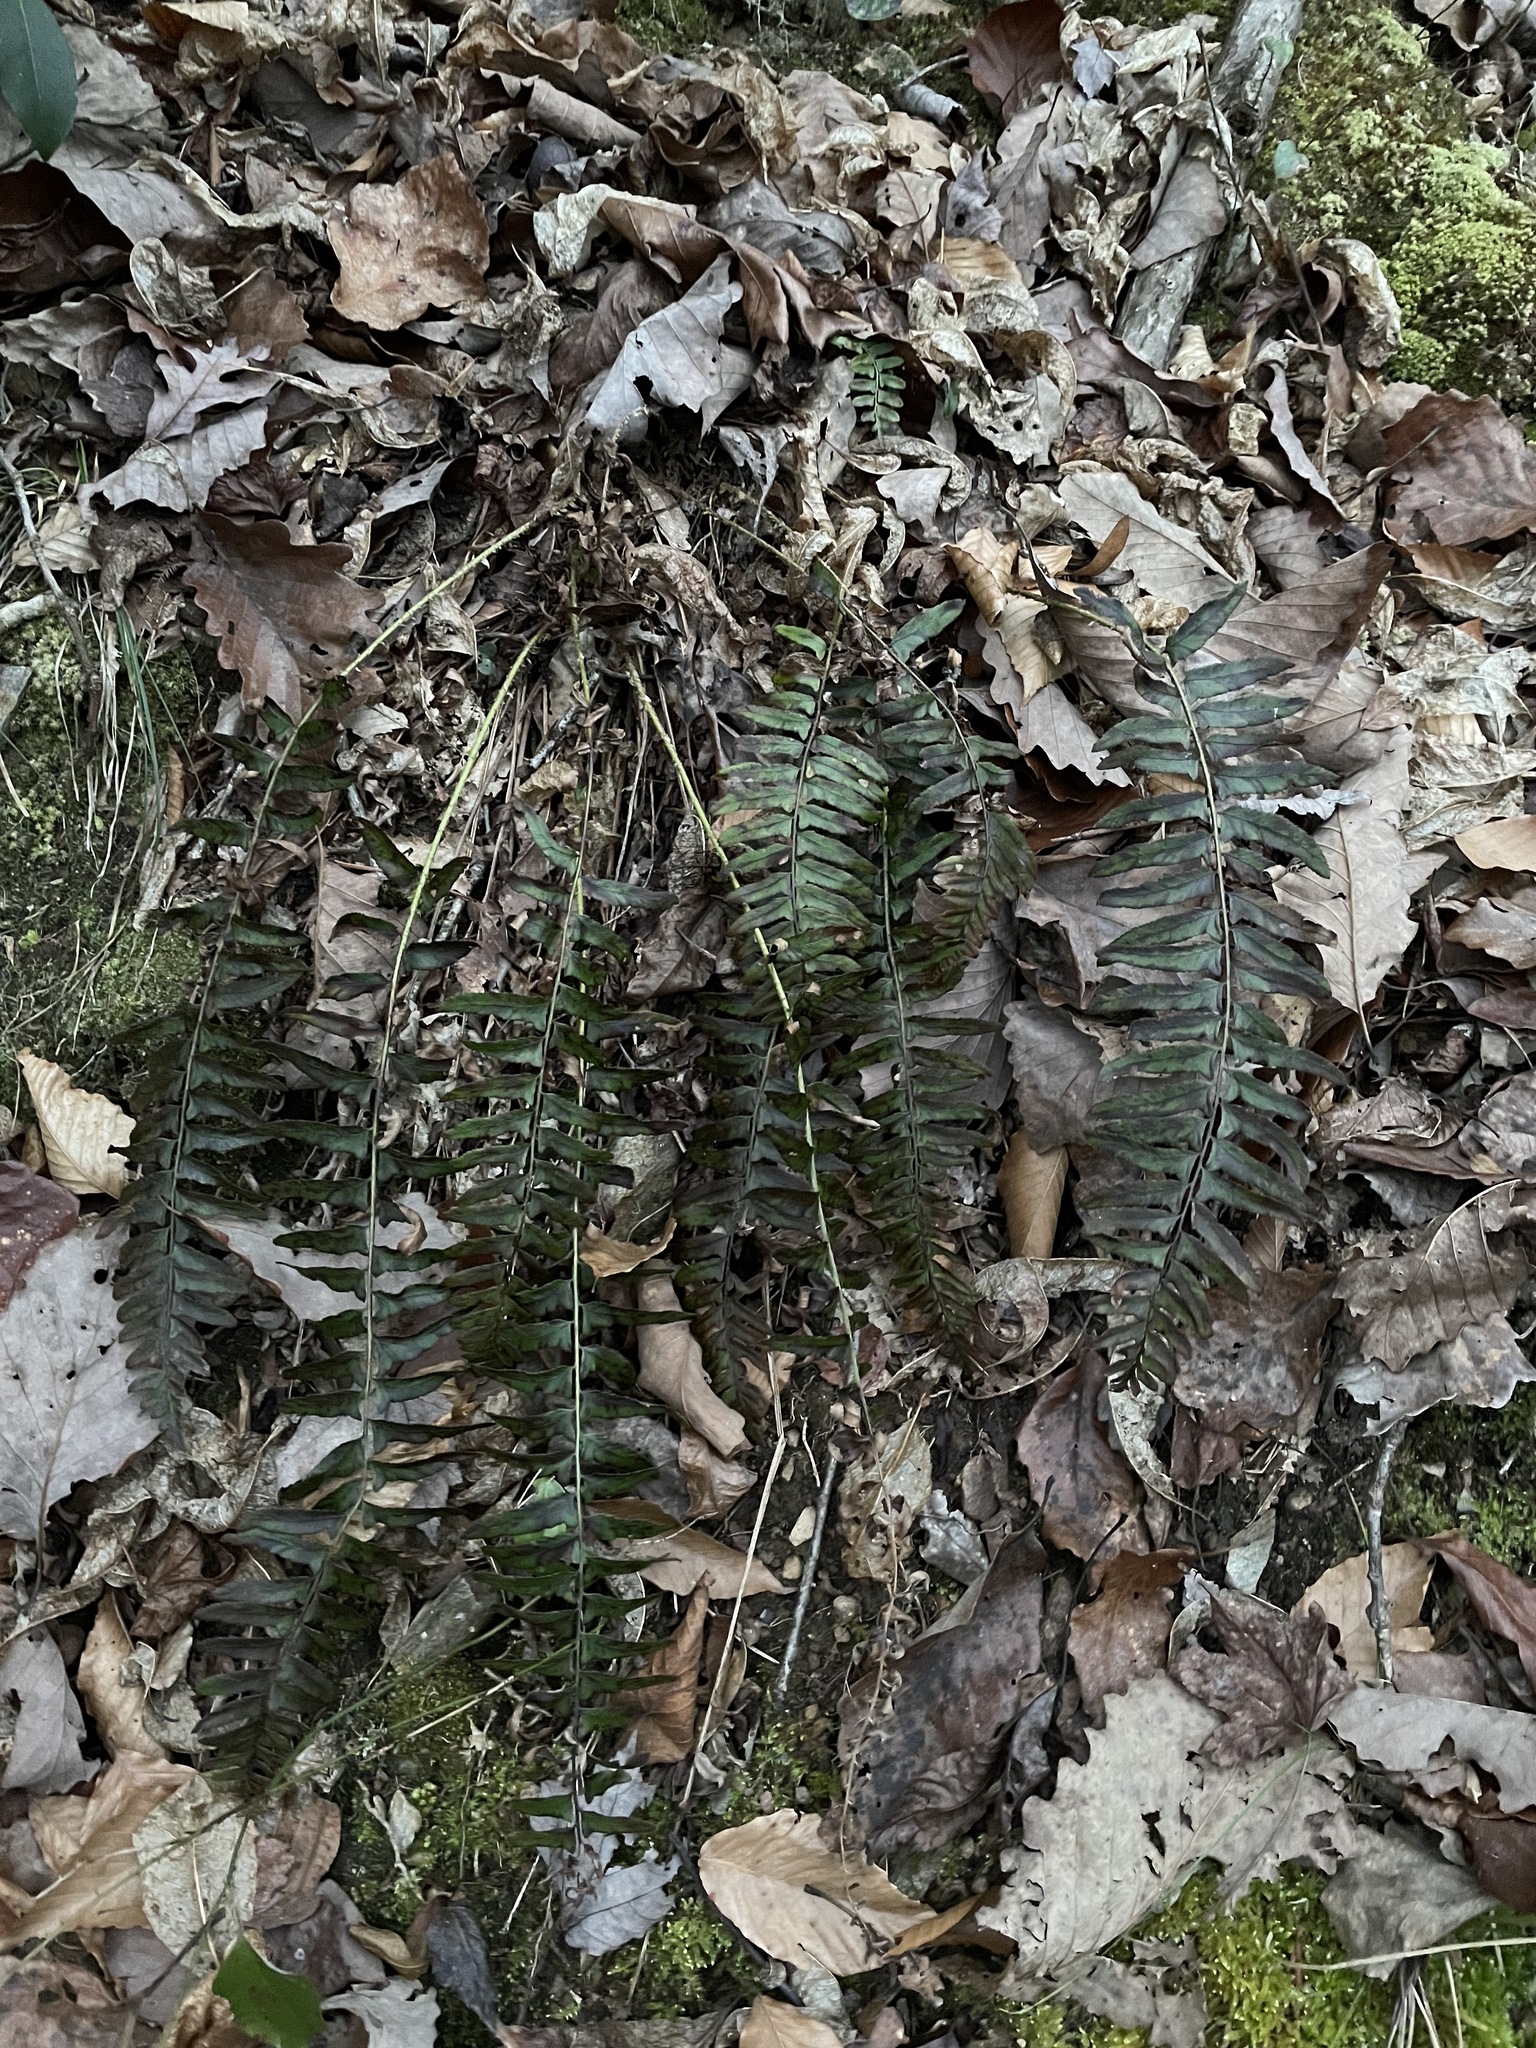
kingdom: Plantae
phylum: Tracheophyta
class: Polypodiopsida
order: Polypodiales
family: Dryopteridaceae
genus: Polystichum
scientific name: Polystichum acrostichoides
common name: Christmas fern
